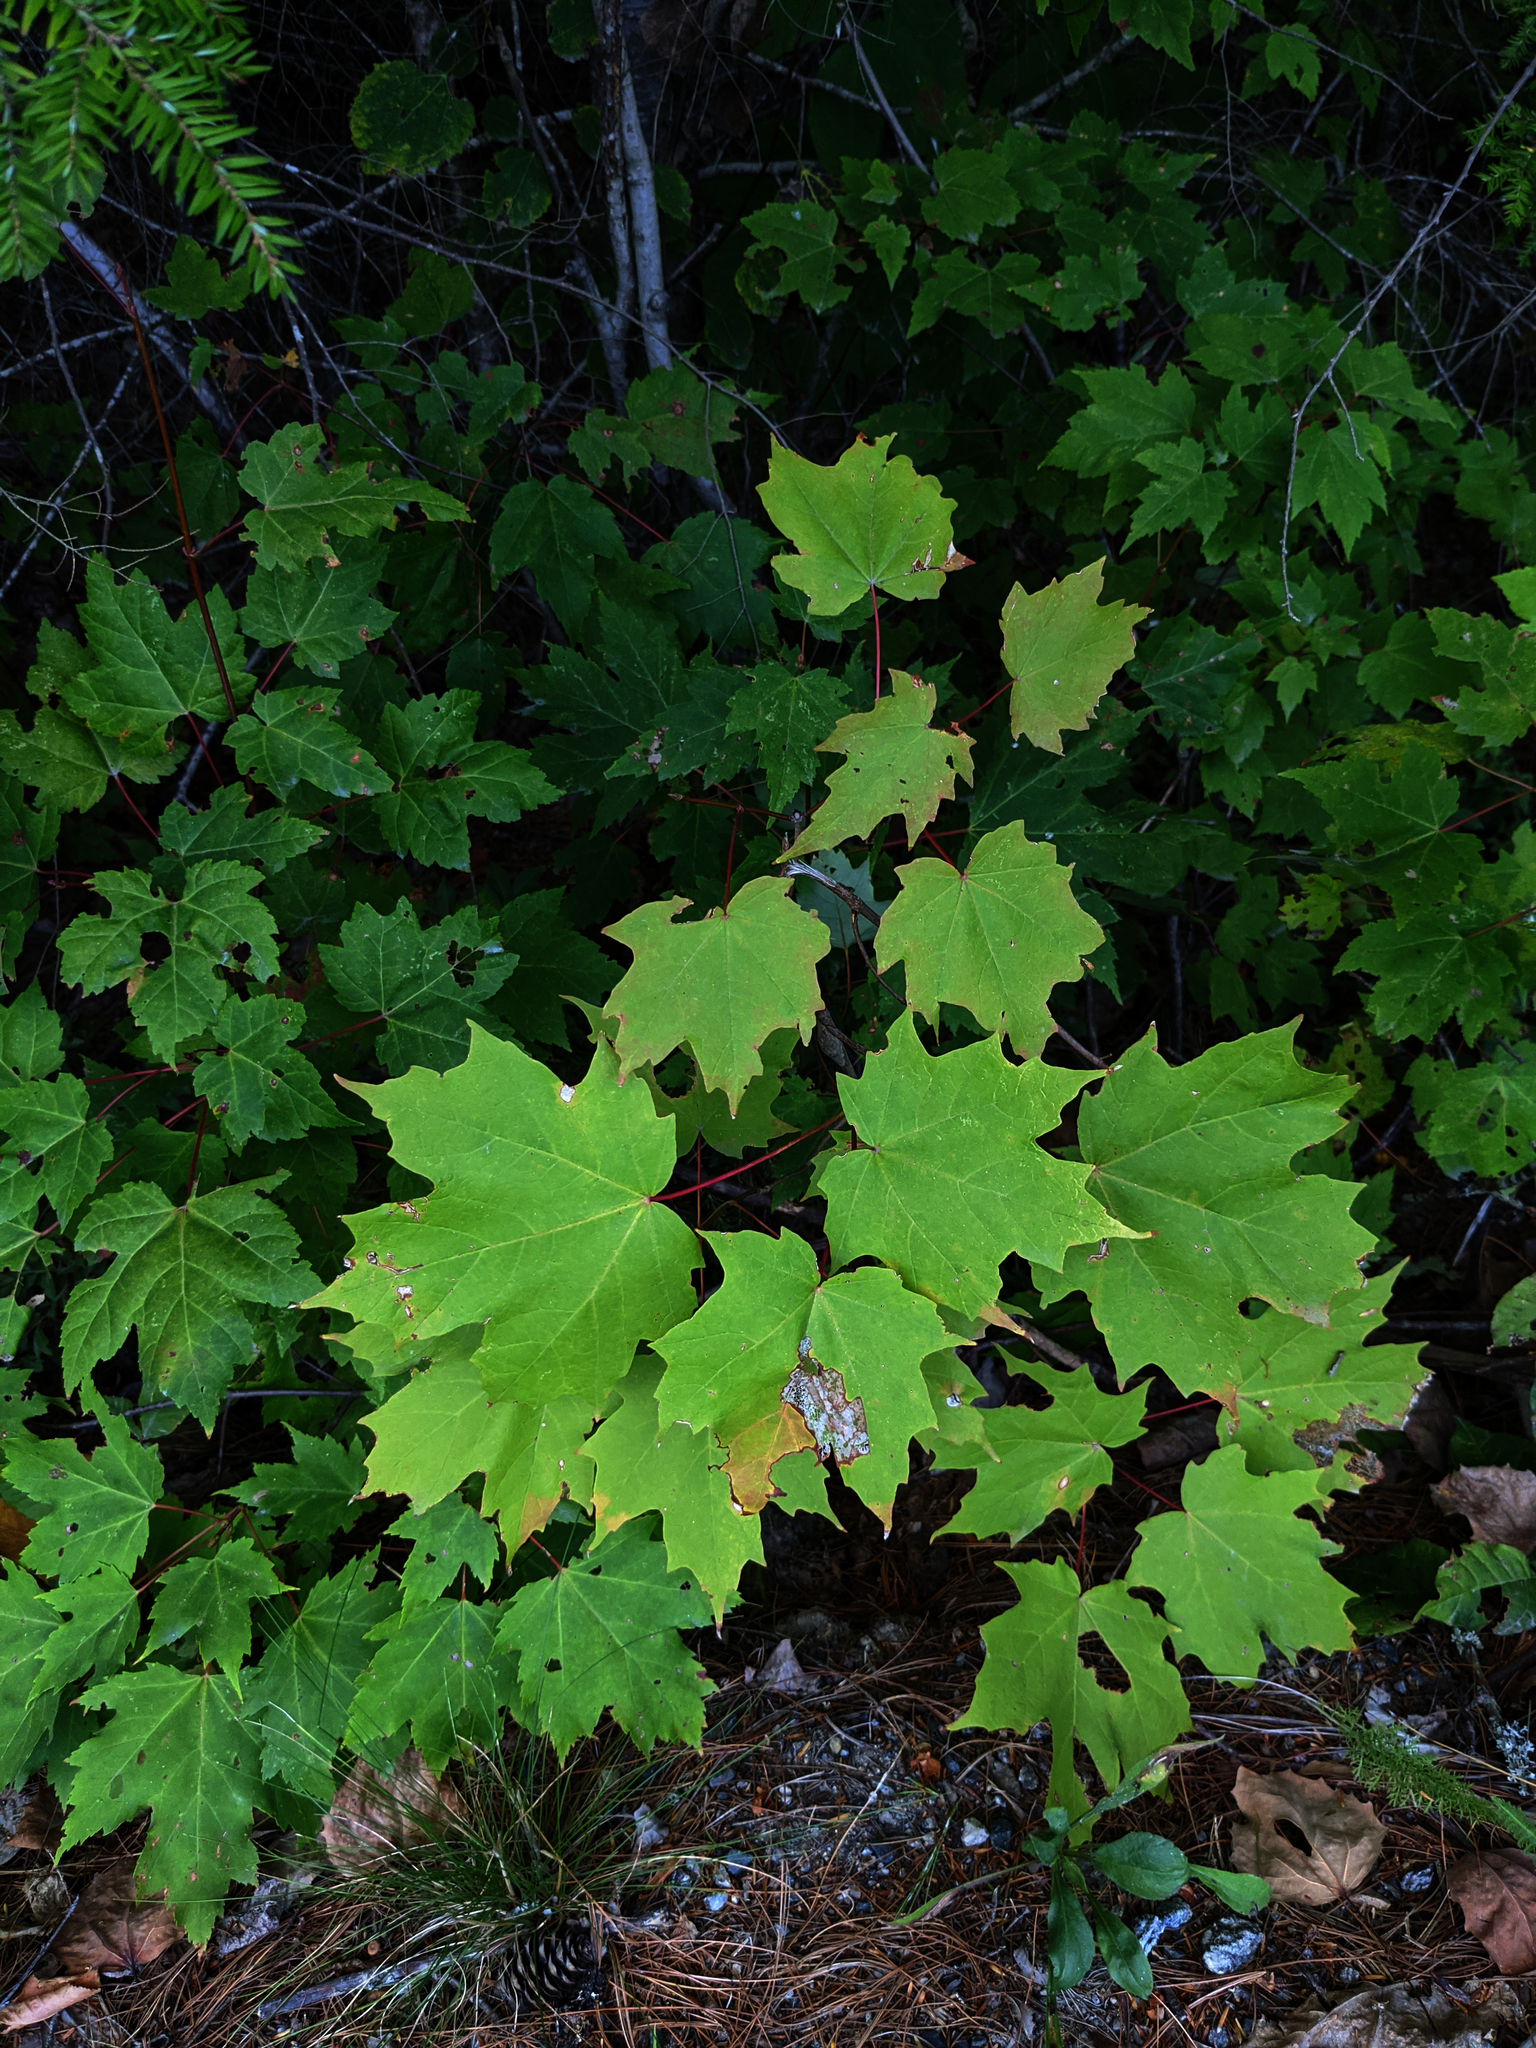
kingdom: Plantae
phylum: Tracheophyta
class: Magnoliopsida
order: Sapindales
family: Sapindaceae
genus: Acer
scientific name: Acer saccharum
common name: Sugar maple
